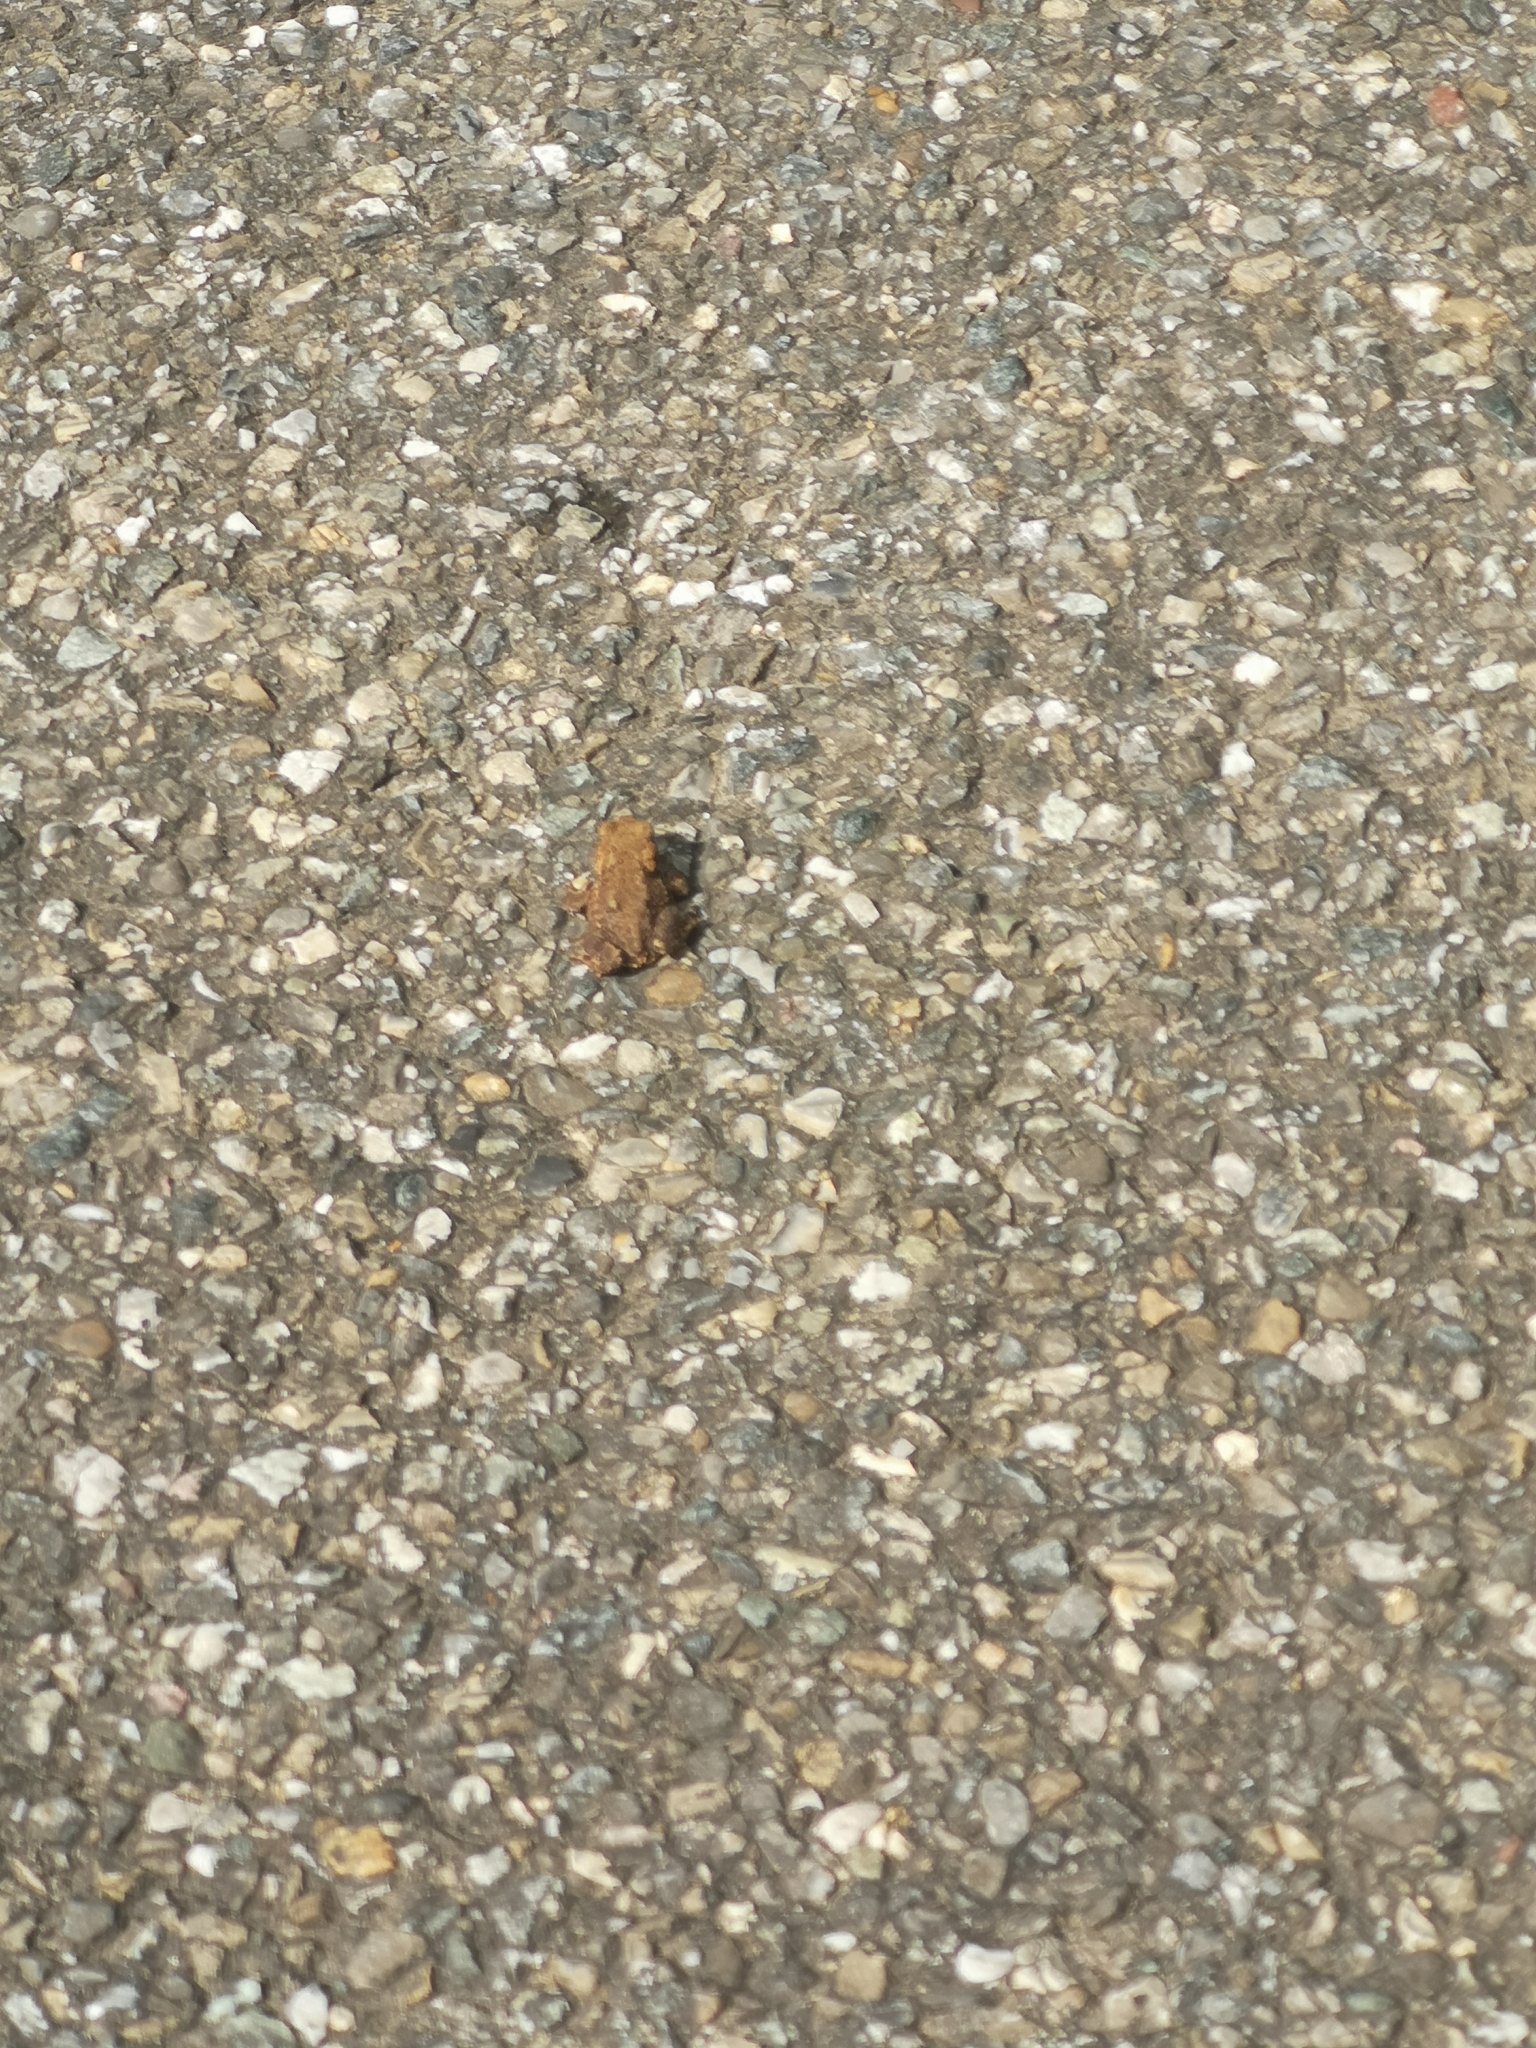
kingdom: Animalia
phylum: Chordata
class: Amphibia
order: Anura
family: Bufonidae
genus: Bufo
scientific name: Bufo bufo
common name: Common toad
